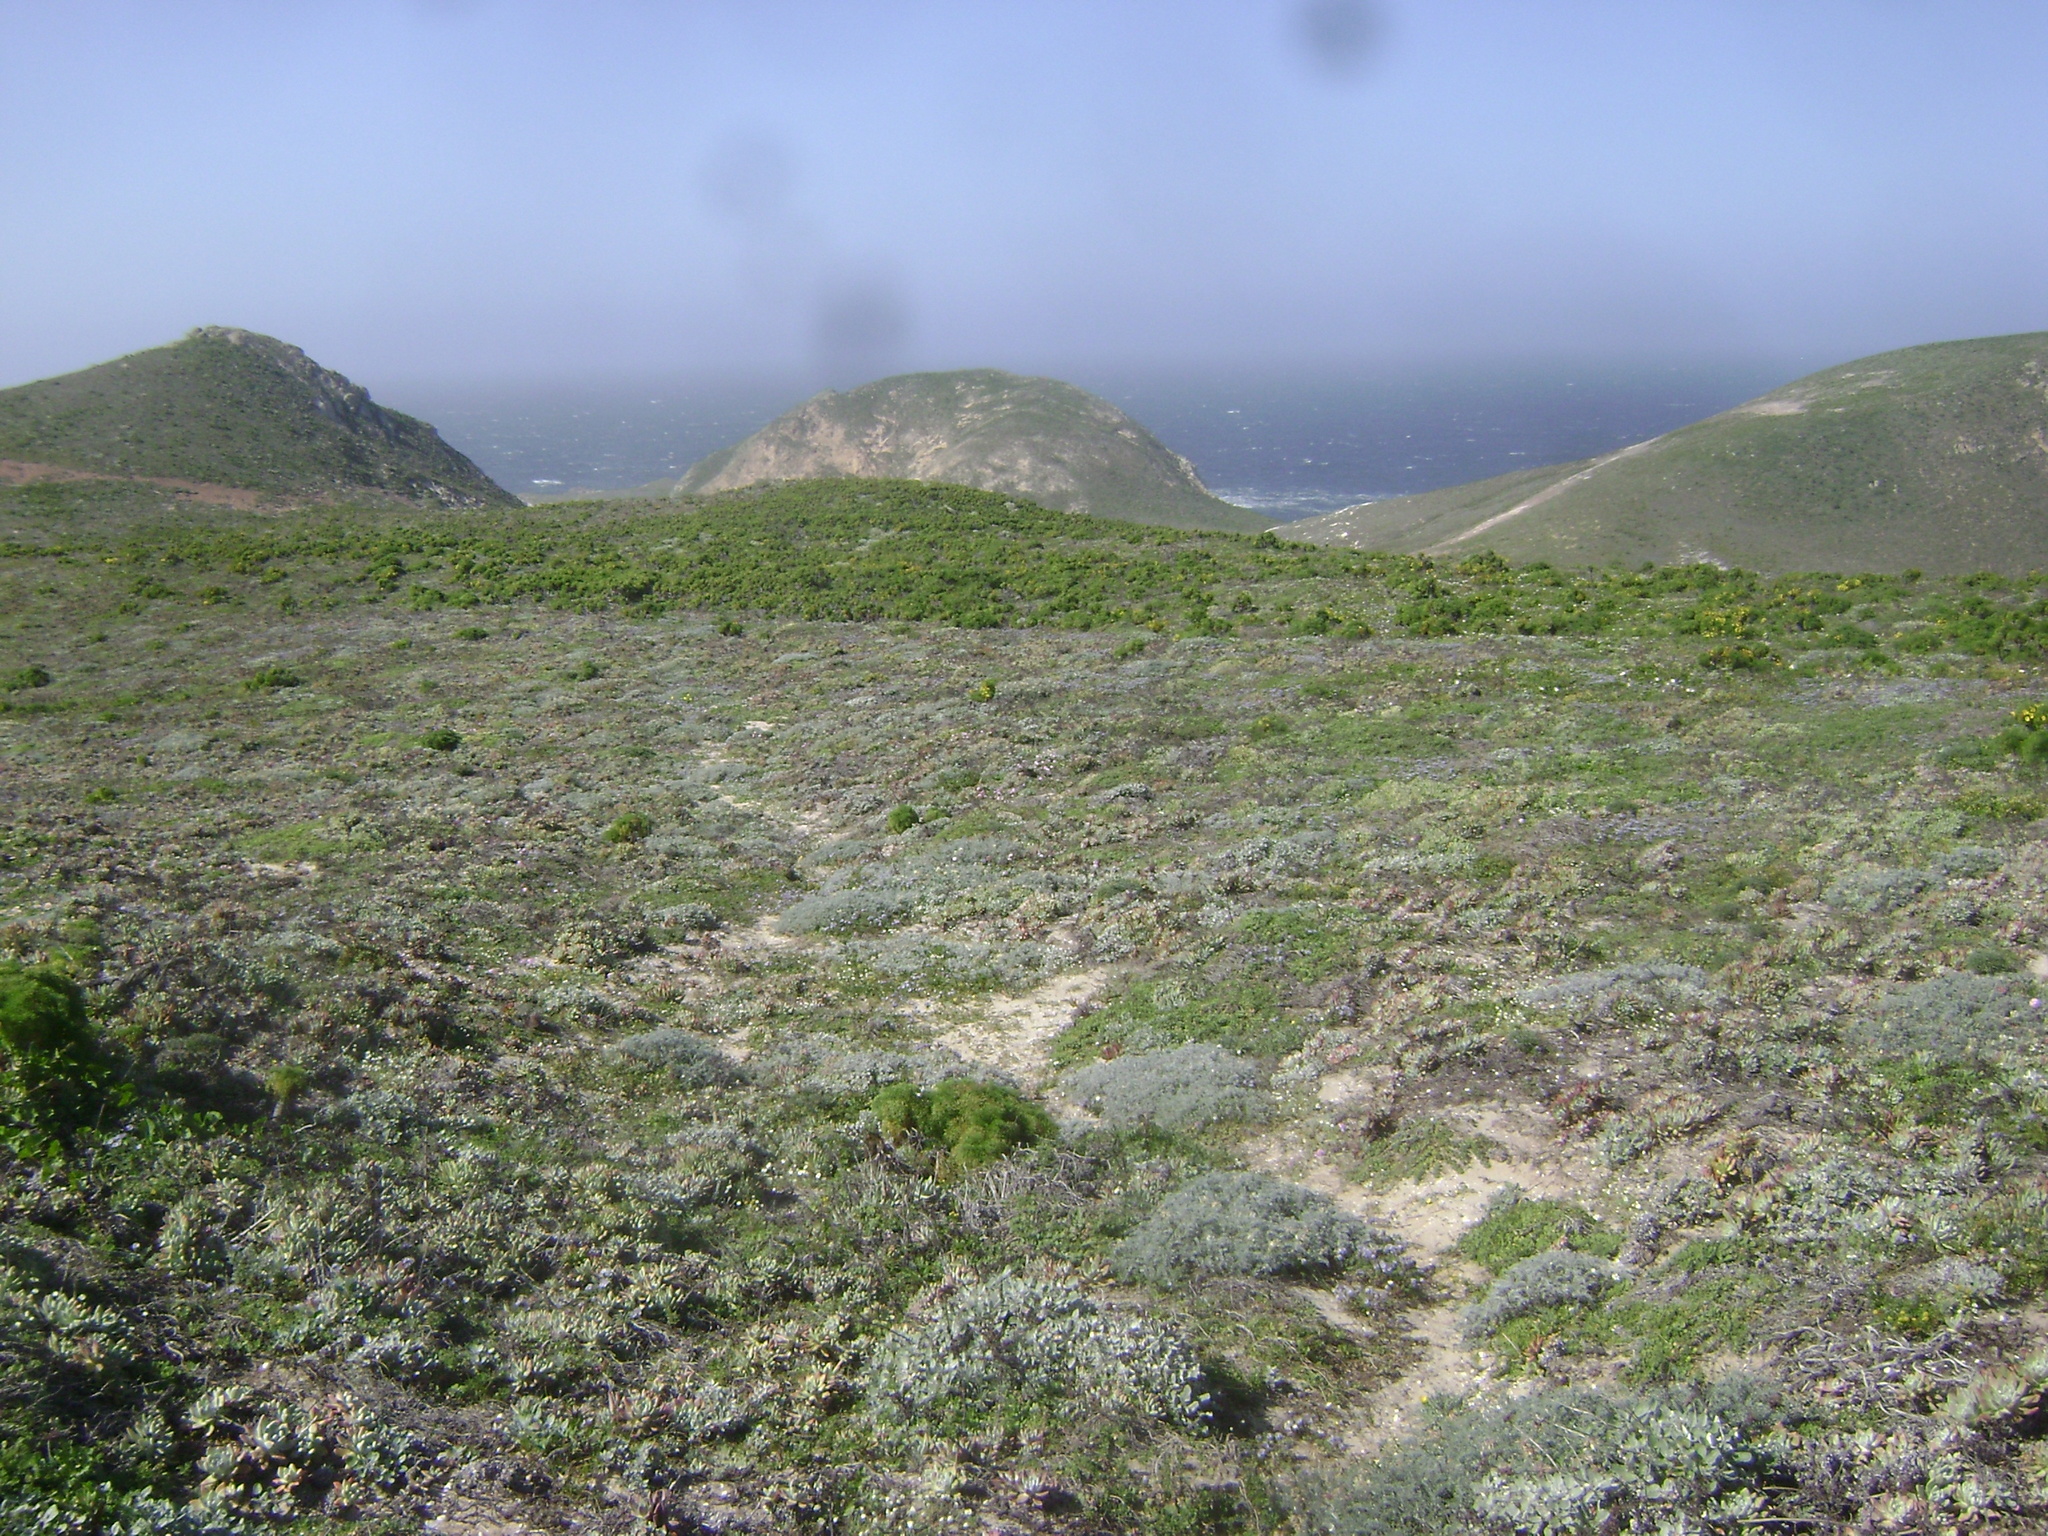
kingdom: Plantae
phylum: Tracheophyta
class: Magnoliopsida
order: Saxifragales
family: Crassulaceae
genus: Dudleya
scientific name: Dudleya greenei
